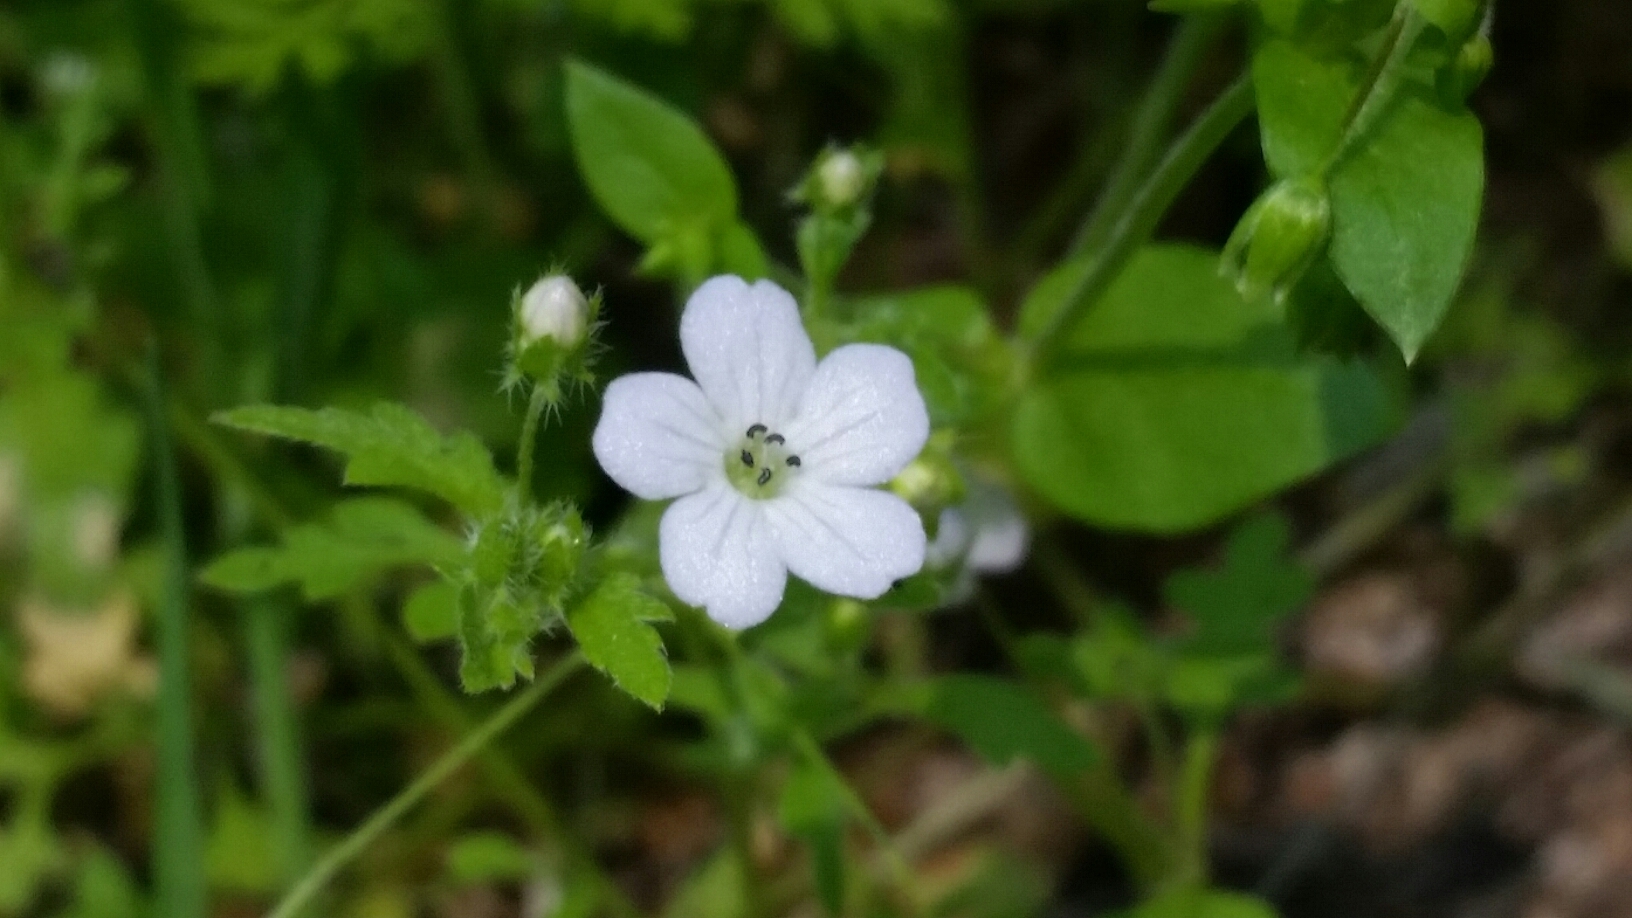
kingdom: Plantae
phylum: Tracheophyta
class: Magnoliopsida
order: Boraginales
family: Hydrophyllaceae
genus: Nemophila
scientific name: Nemophila heterophylla
